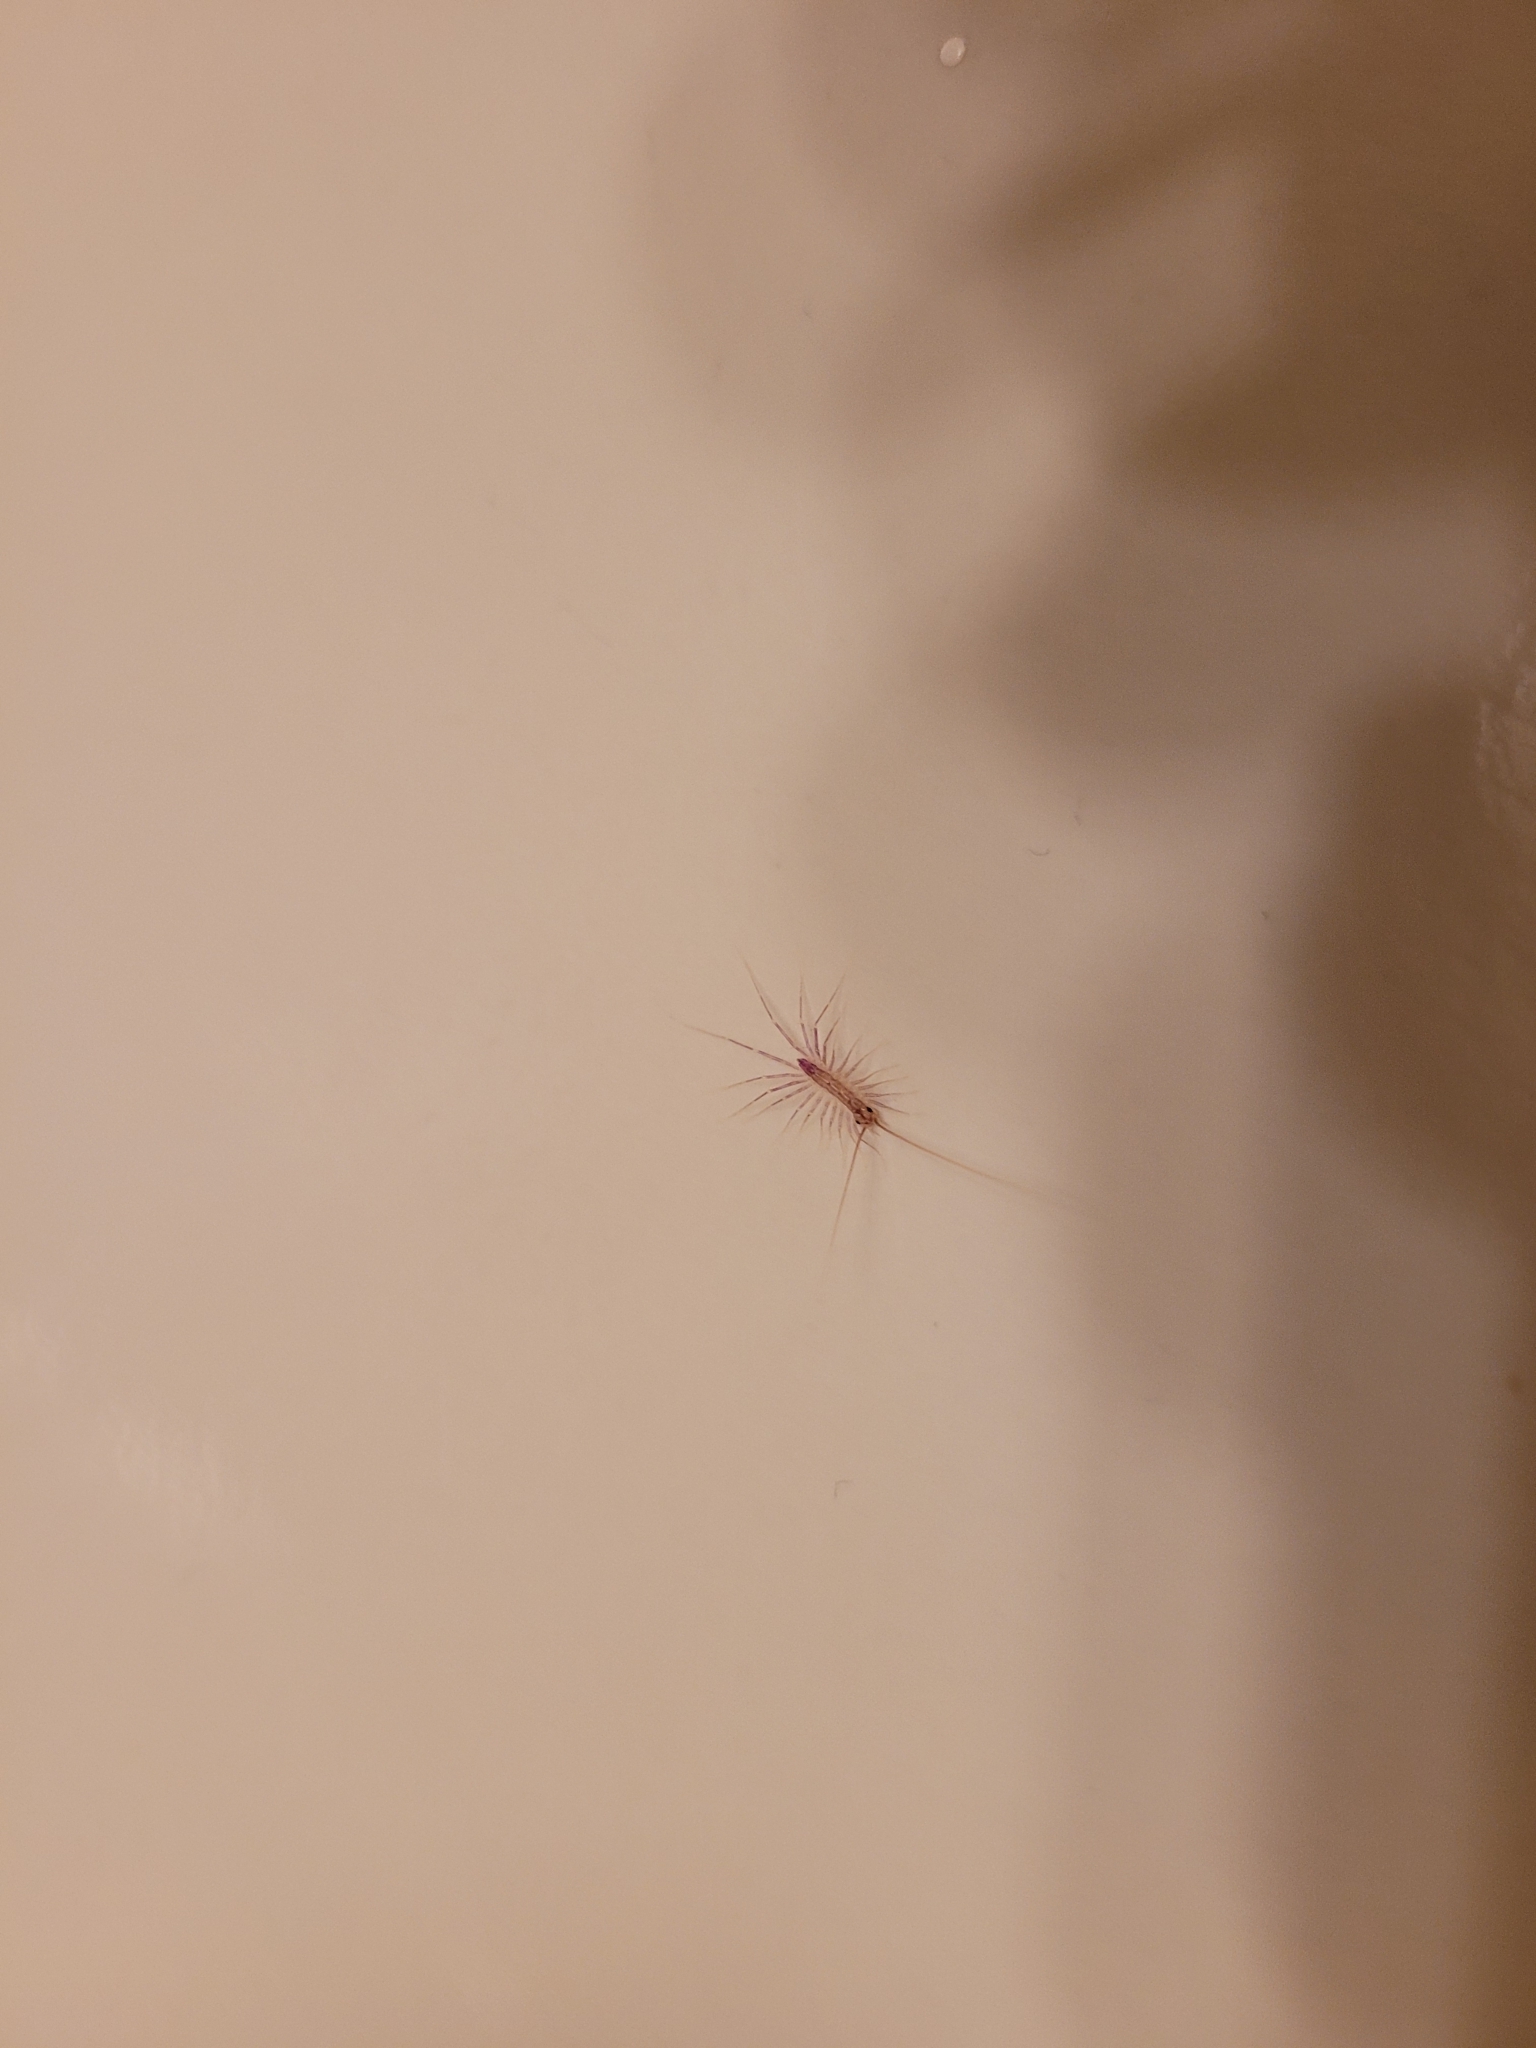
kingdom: Animalia
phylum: Arthropoda
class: Chilopoda
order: Scutigeromorpha
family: Scutigeridae
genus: Scutigera
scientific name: Scutigera coleoptrata
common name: House centipede
